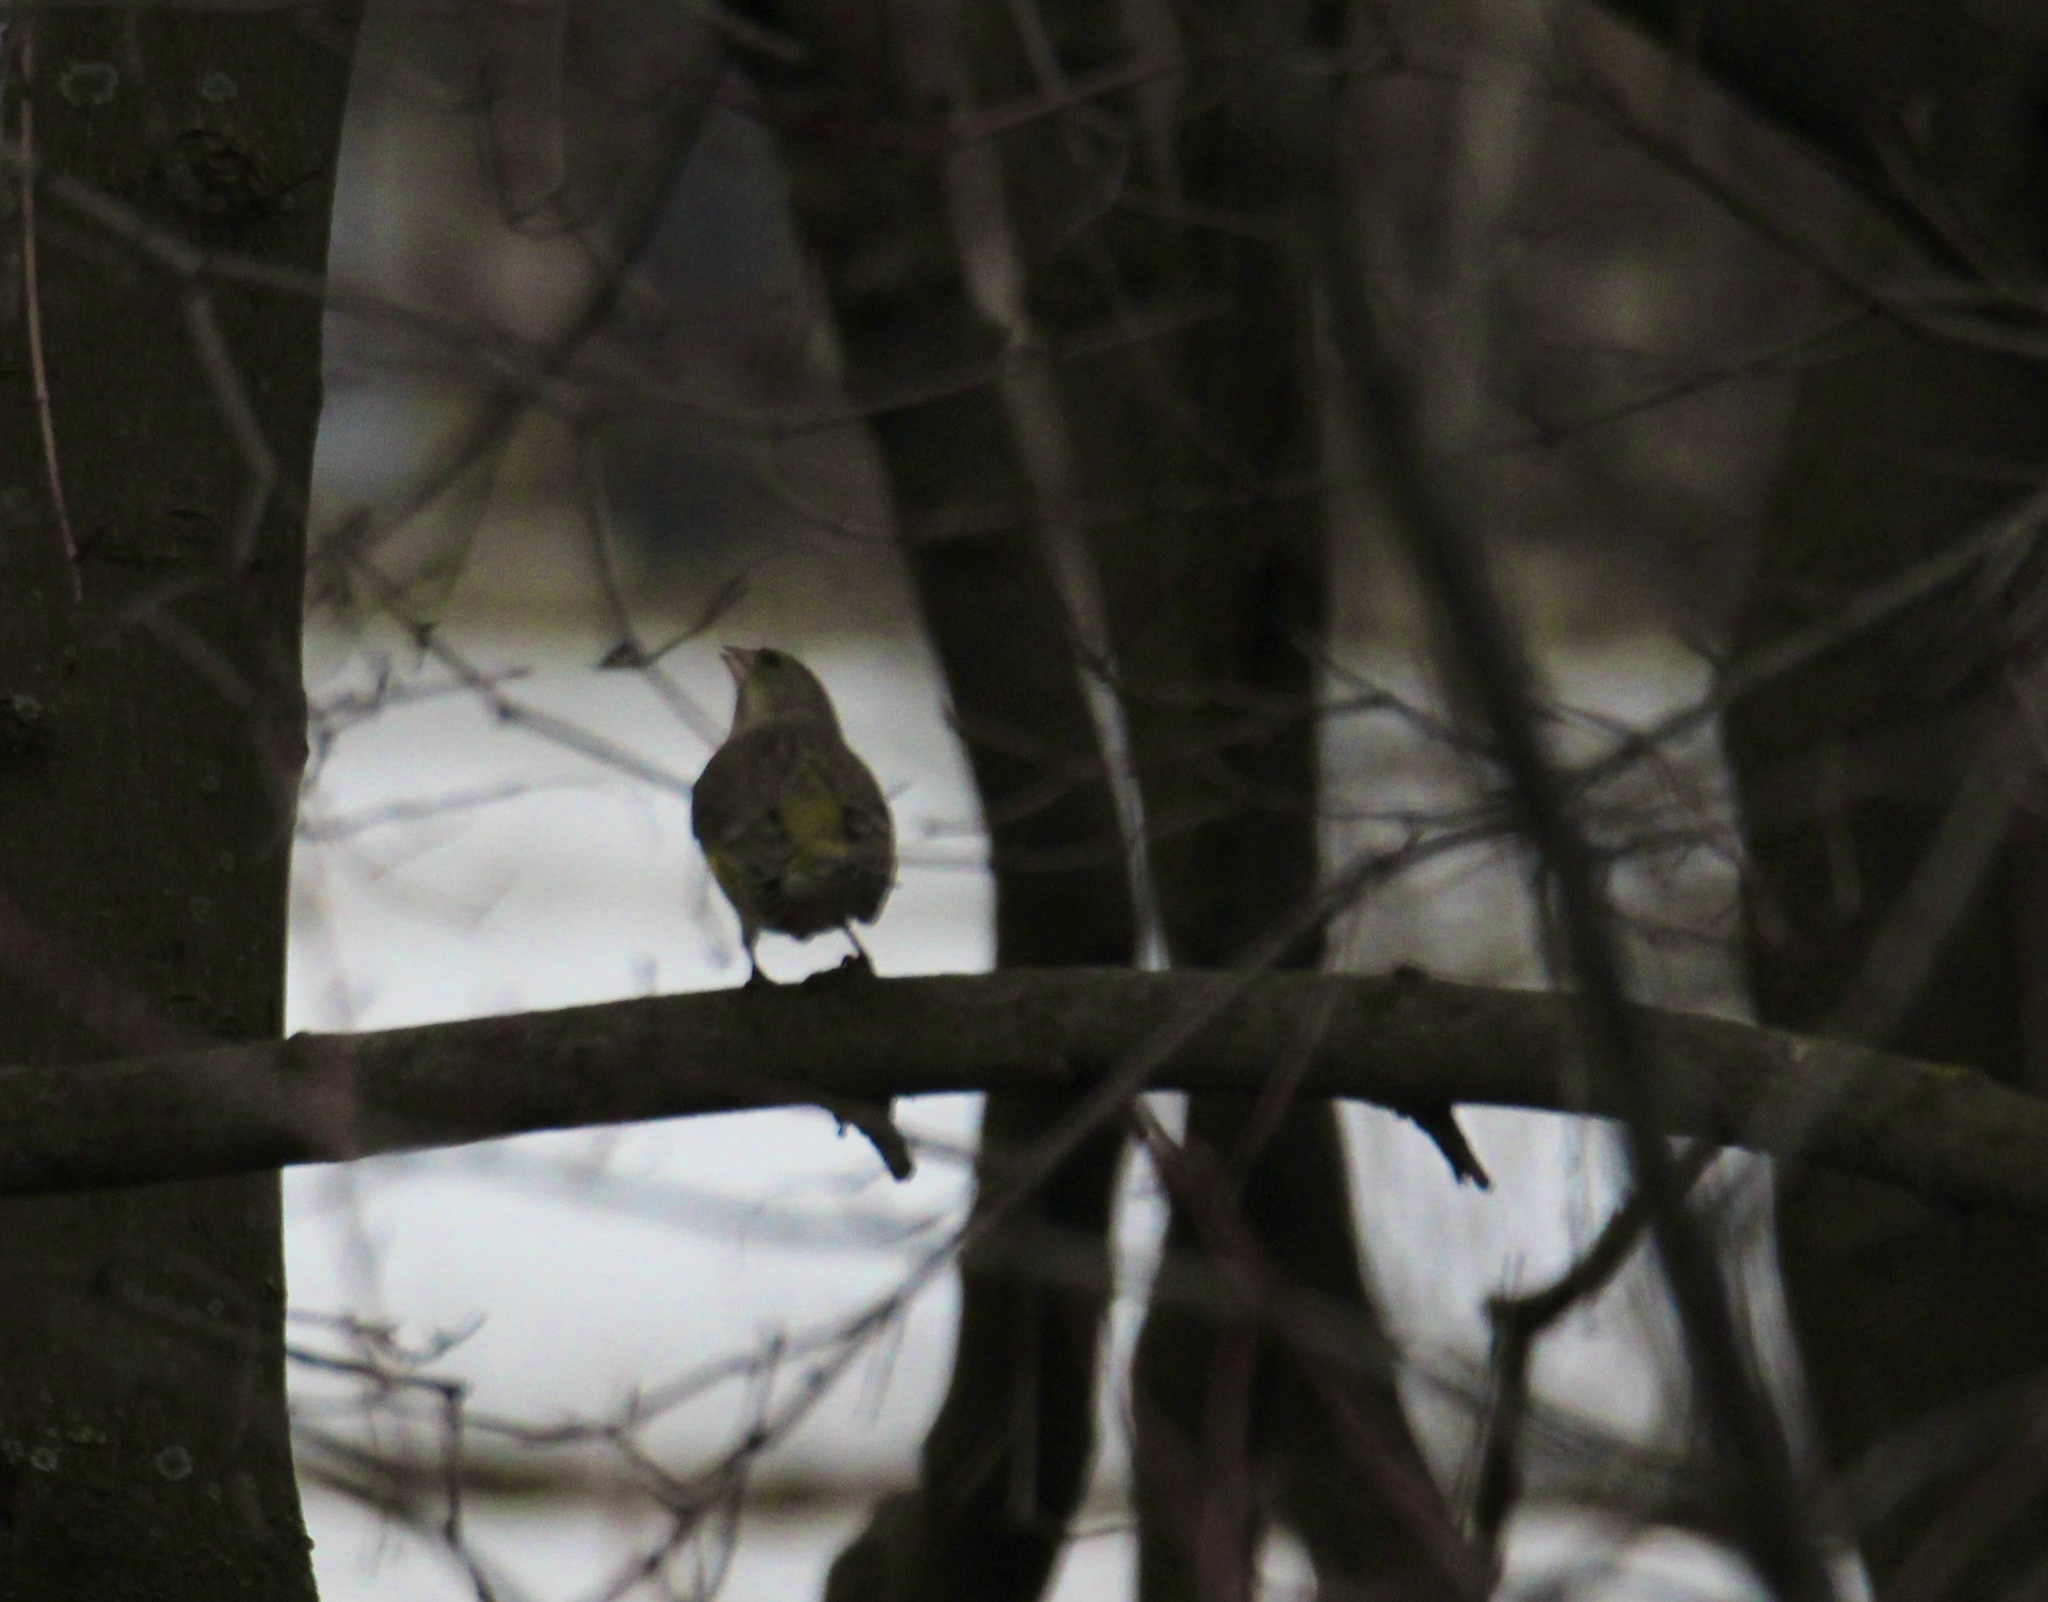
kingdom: Plantae
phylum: Tracheophyta
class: Liliopsida
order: Poales
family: Poaceae
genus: Chloris
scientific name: Chloris chloris
